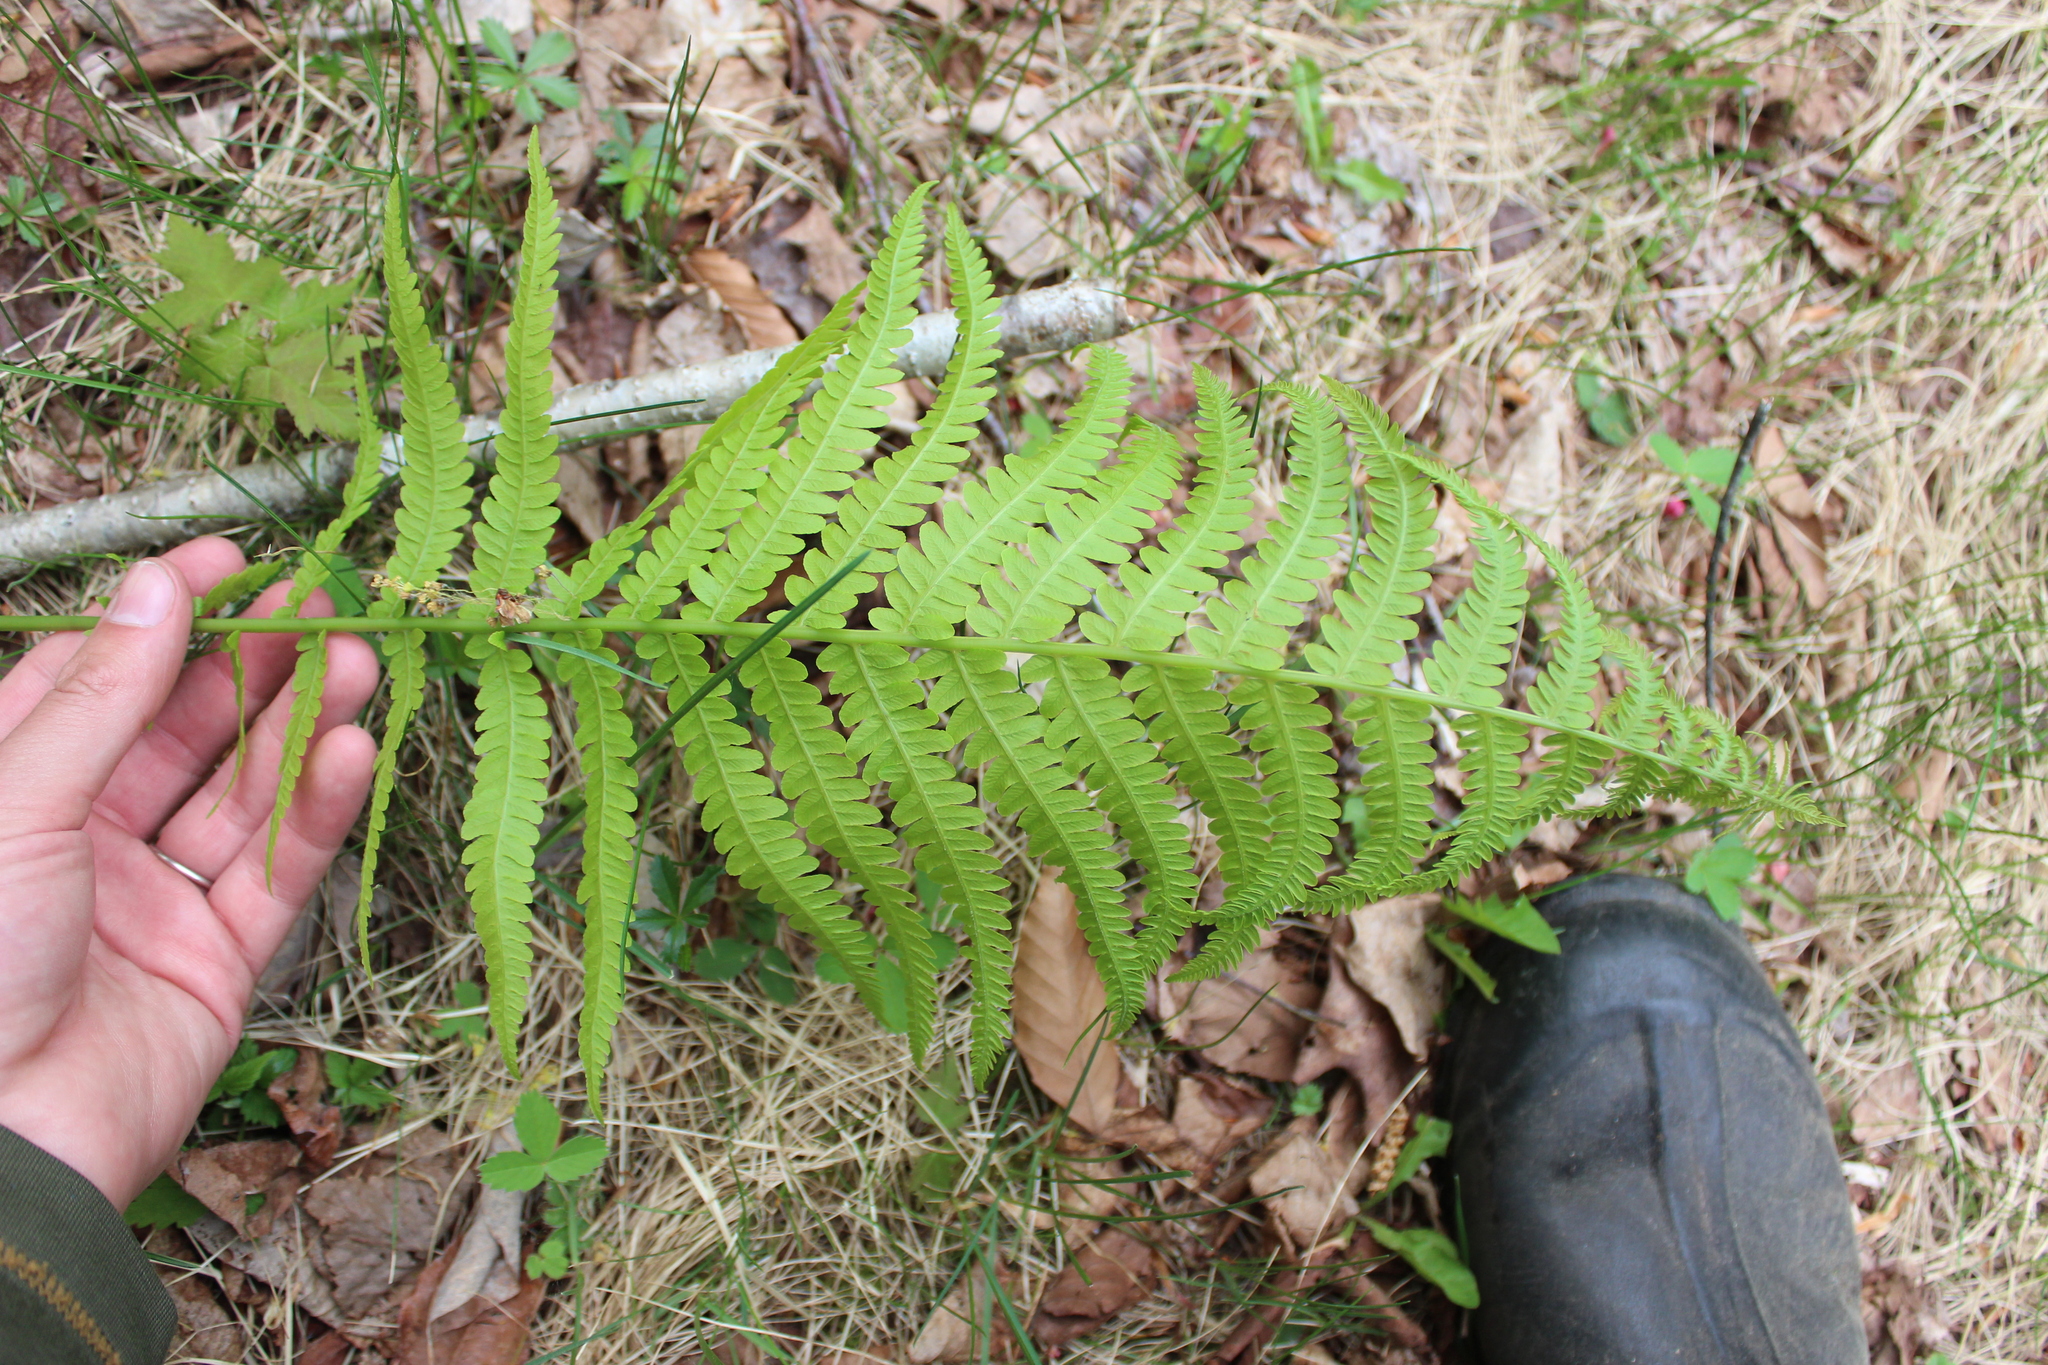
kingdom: Plantae
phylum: Tracheophyta
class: Polypodiopsida
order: Polypodiales
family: Onocleaceae
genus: Matteuccia
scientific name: Matteuccia struthiopteris
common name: Ostrich fern
